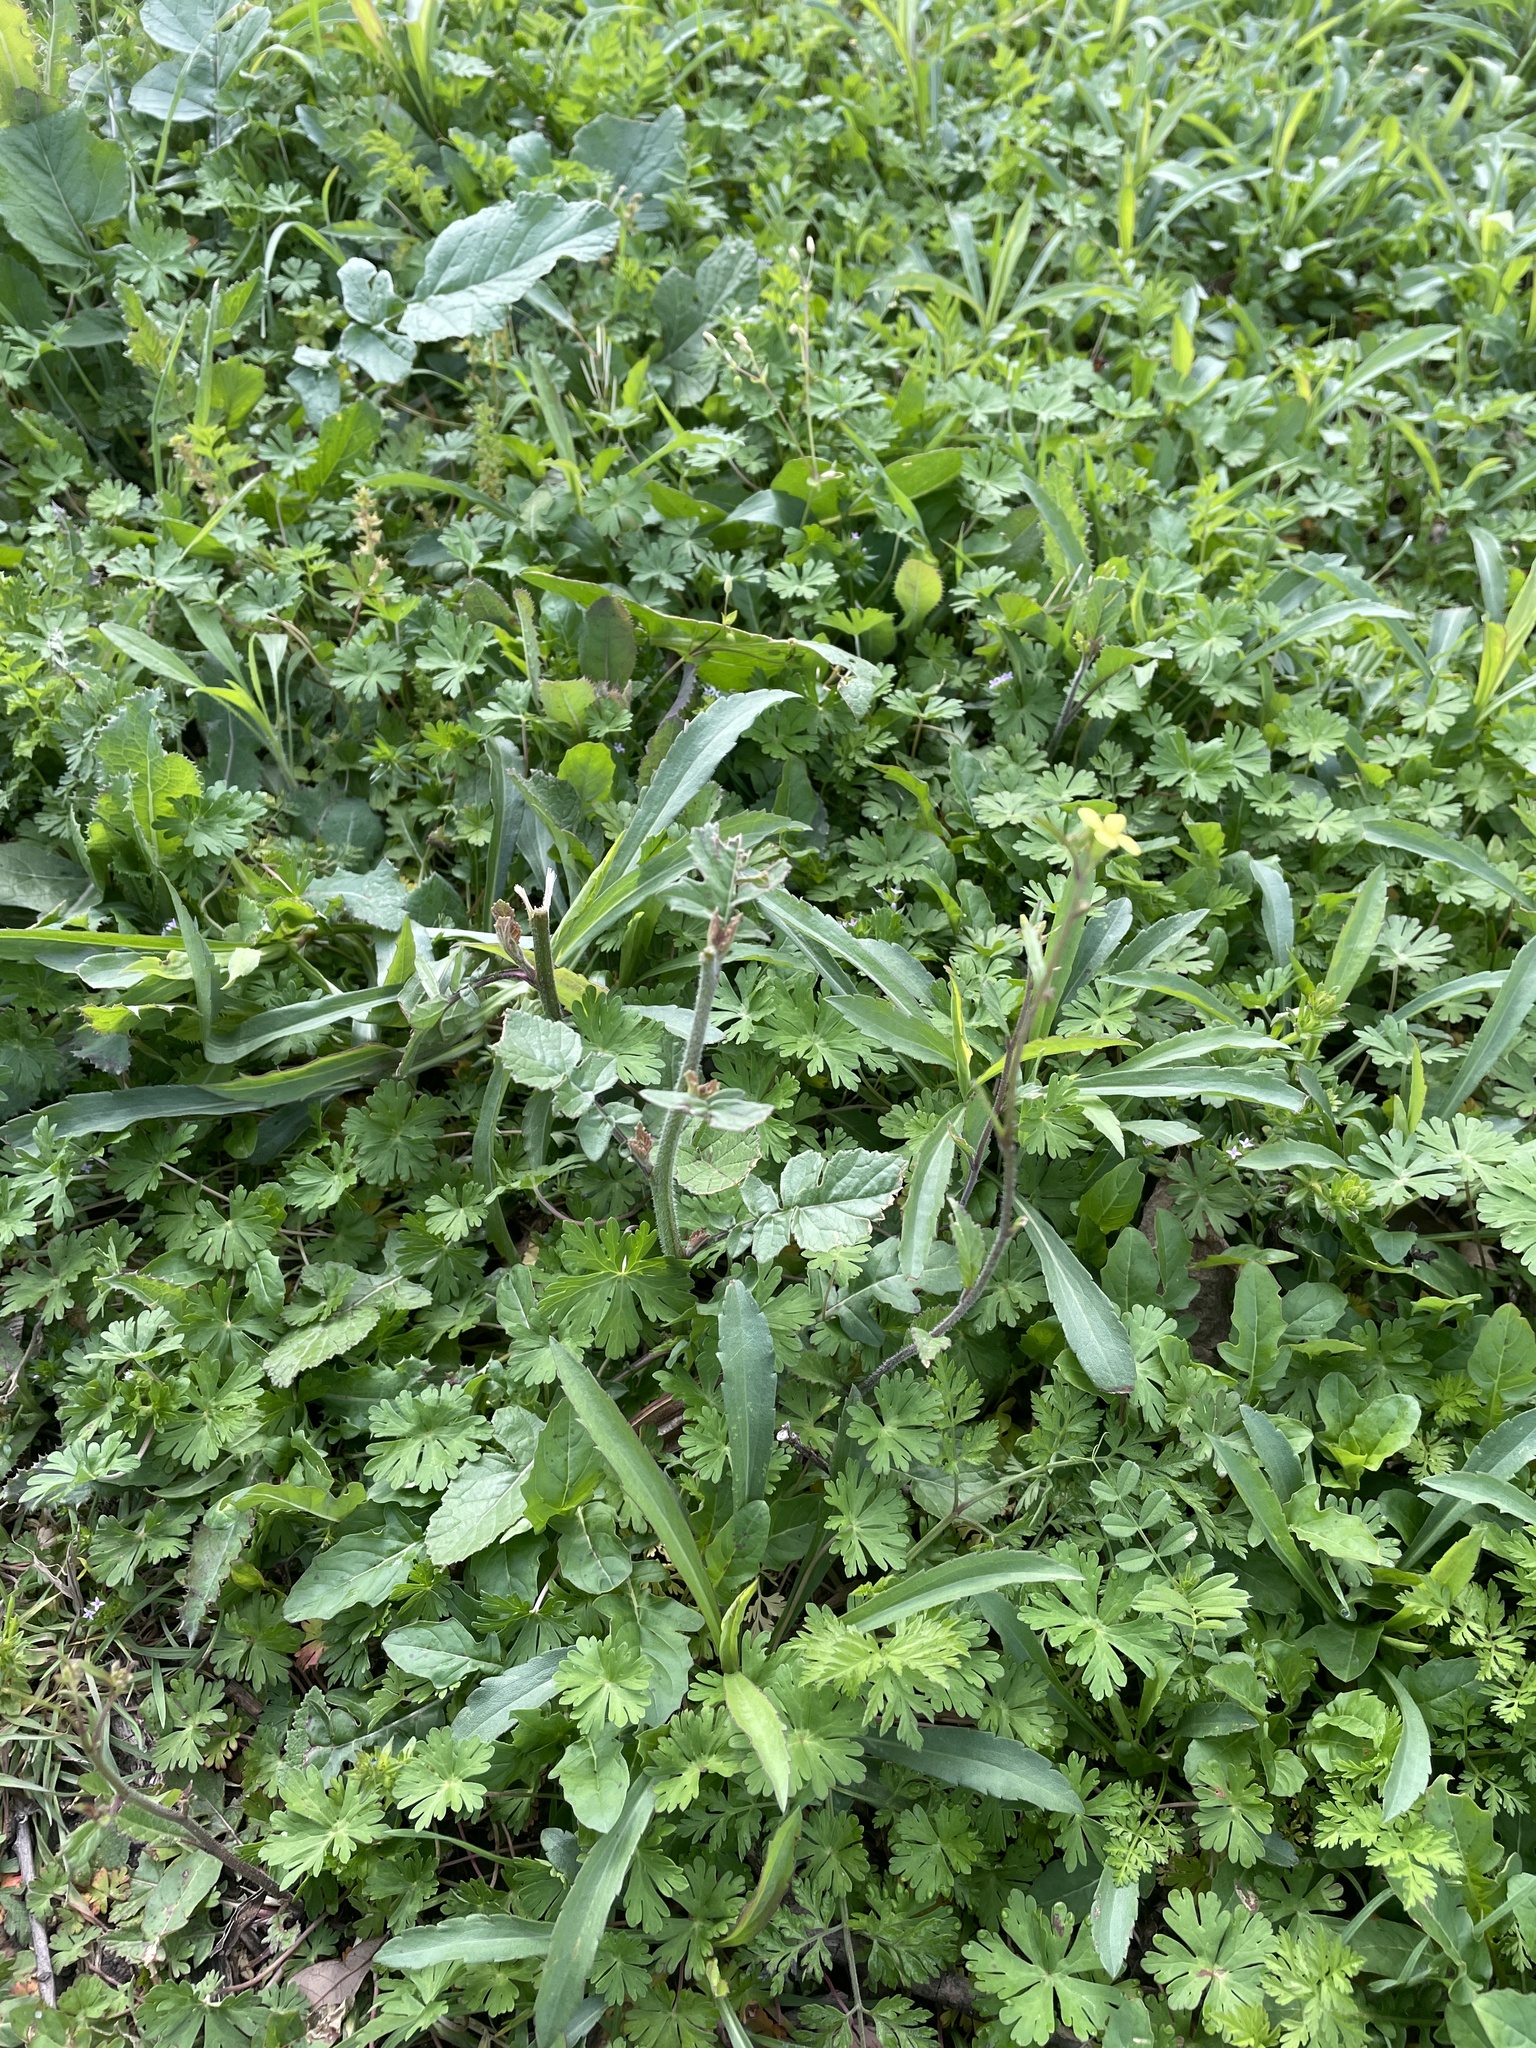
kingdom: Plantae
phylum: Tracheophyta
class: Magnoliopsida
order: Brassicales
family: Brassicaceae
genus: Rapistrum
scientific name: Rapistrum rugosum
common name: Annual bastardcabbage
